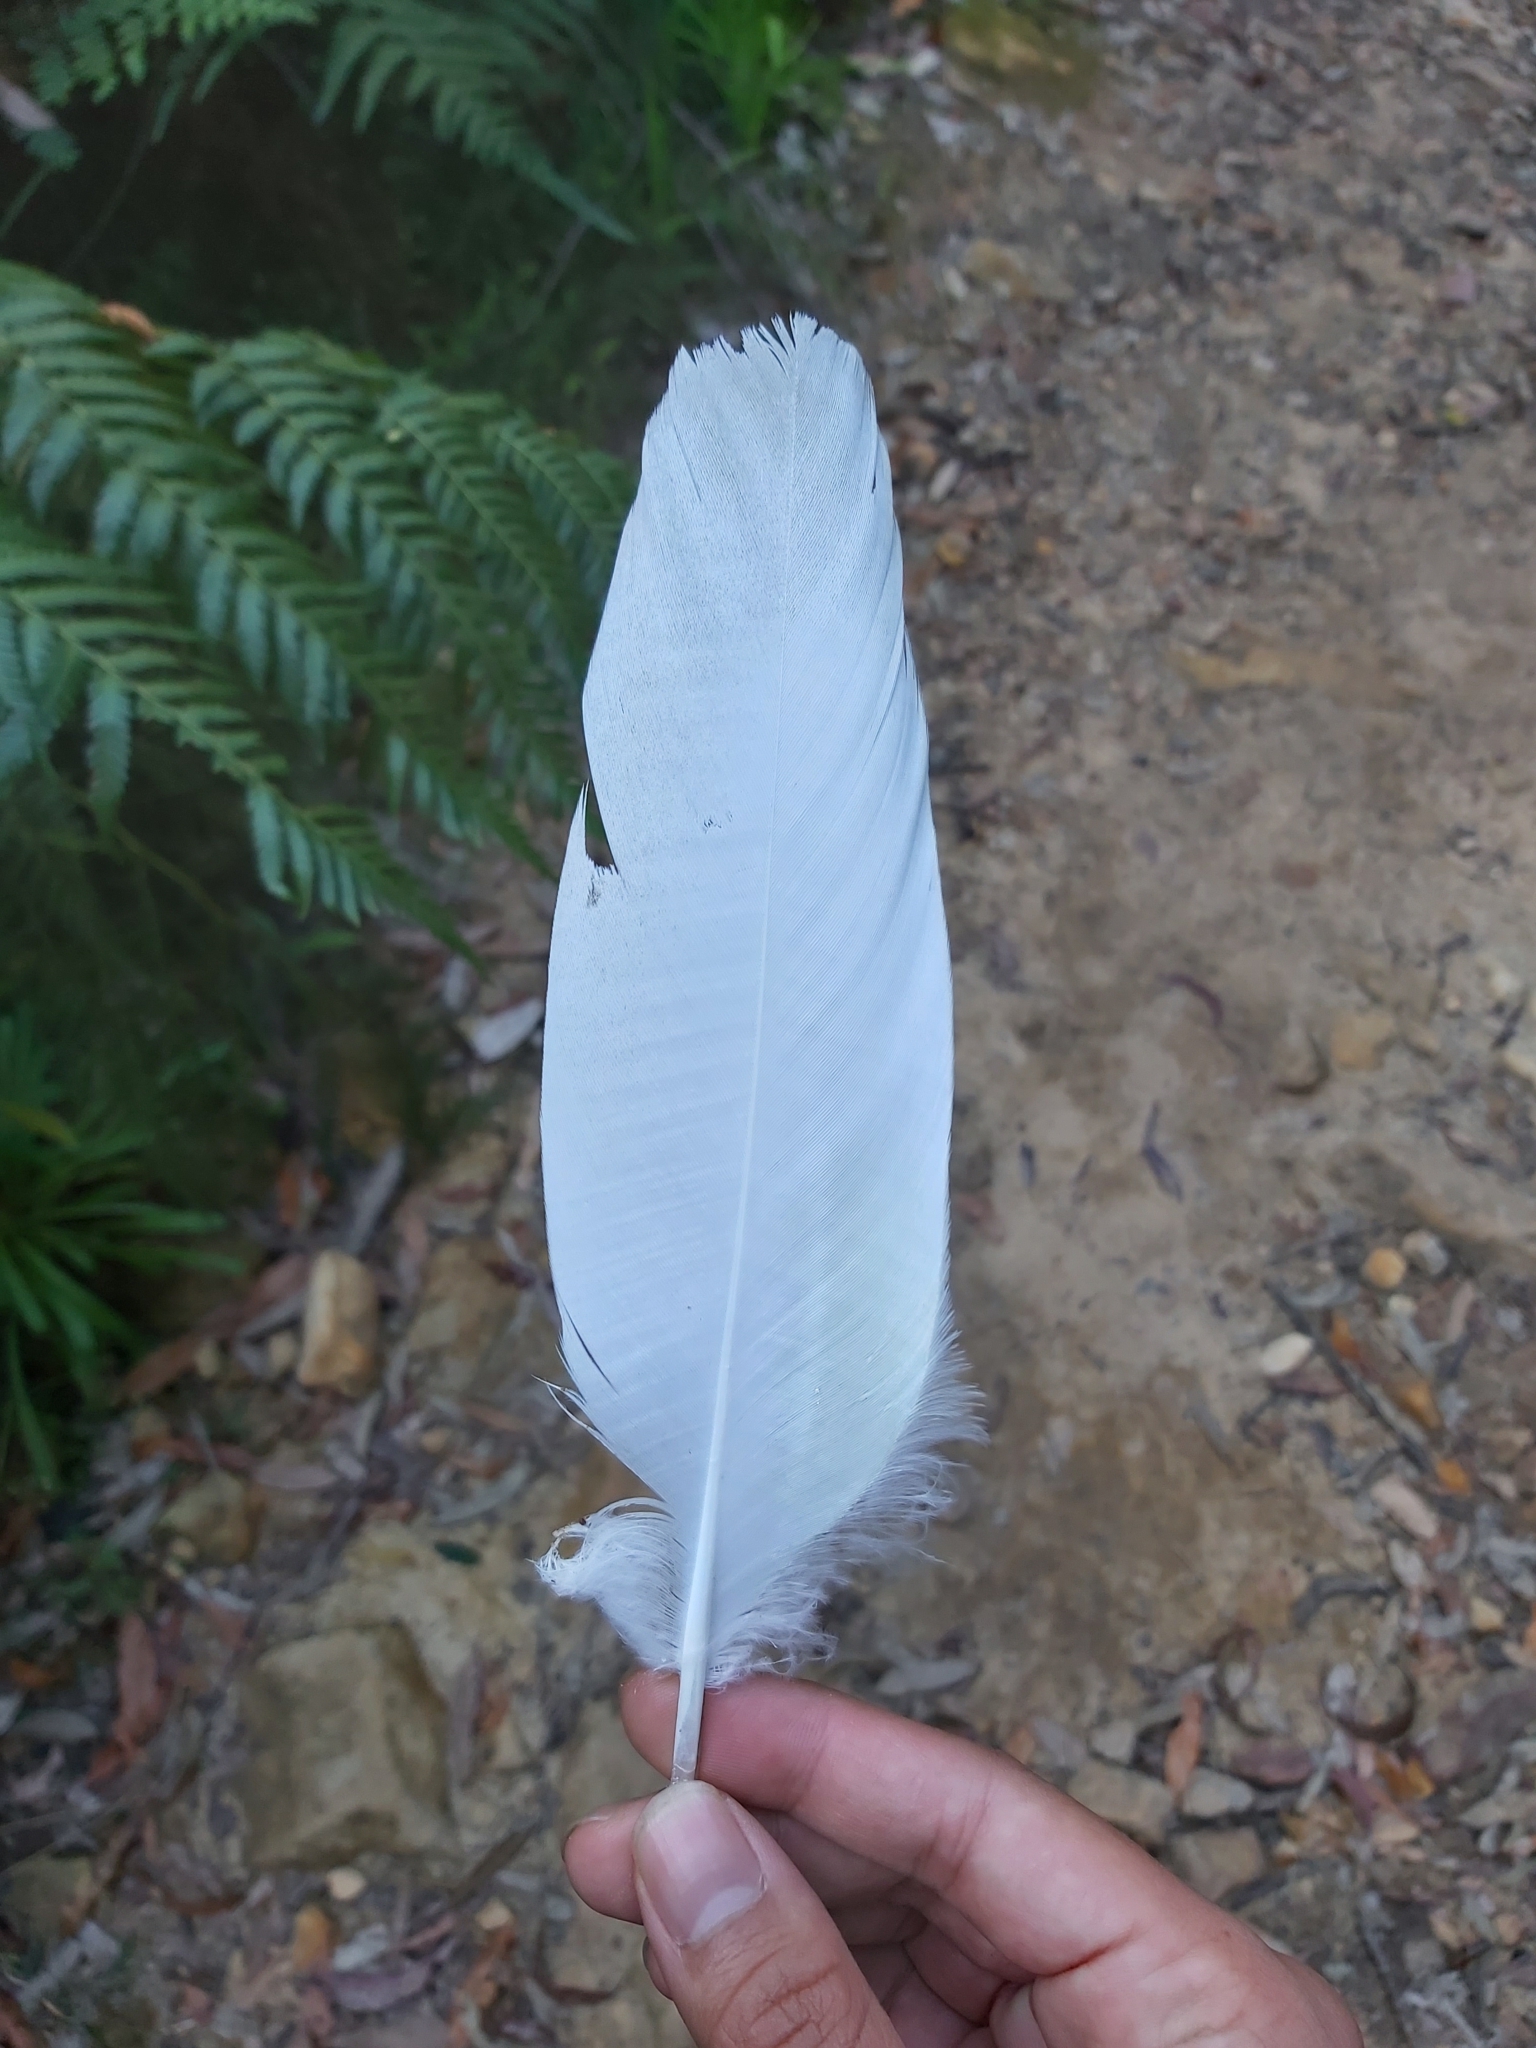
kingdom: Animalia
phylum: Chordata
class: Aves
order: Psittaciformes
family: Psittacidae
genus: Cacatua
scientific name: Cacatua galerita
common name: Sulphur-crested cockatoo
